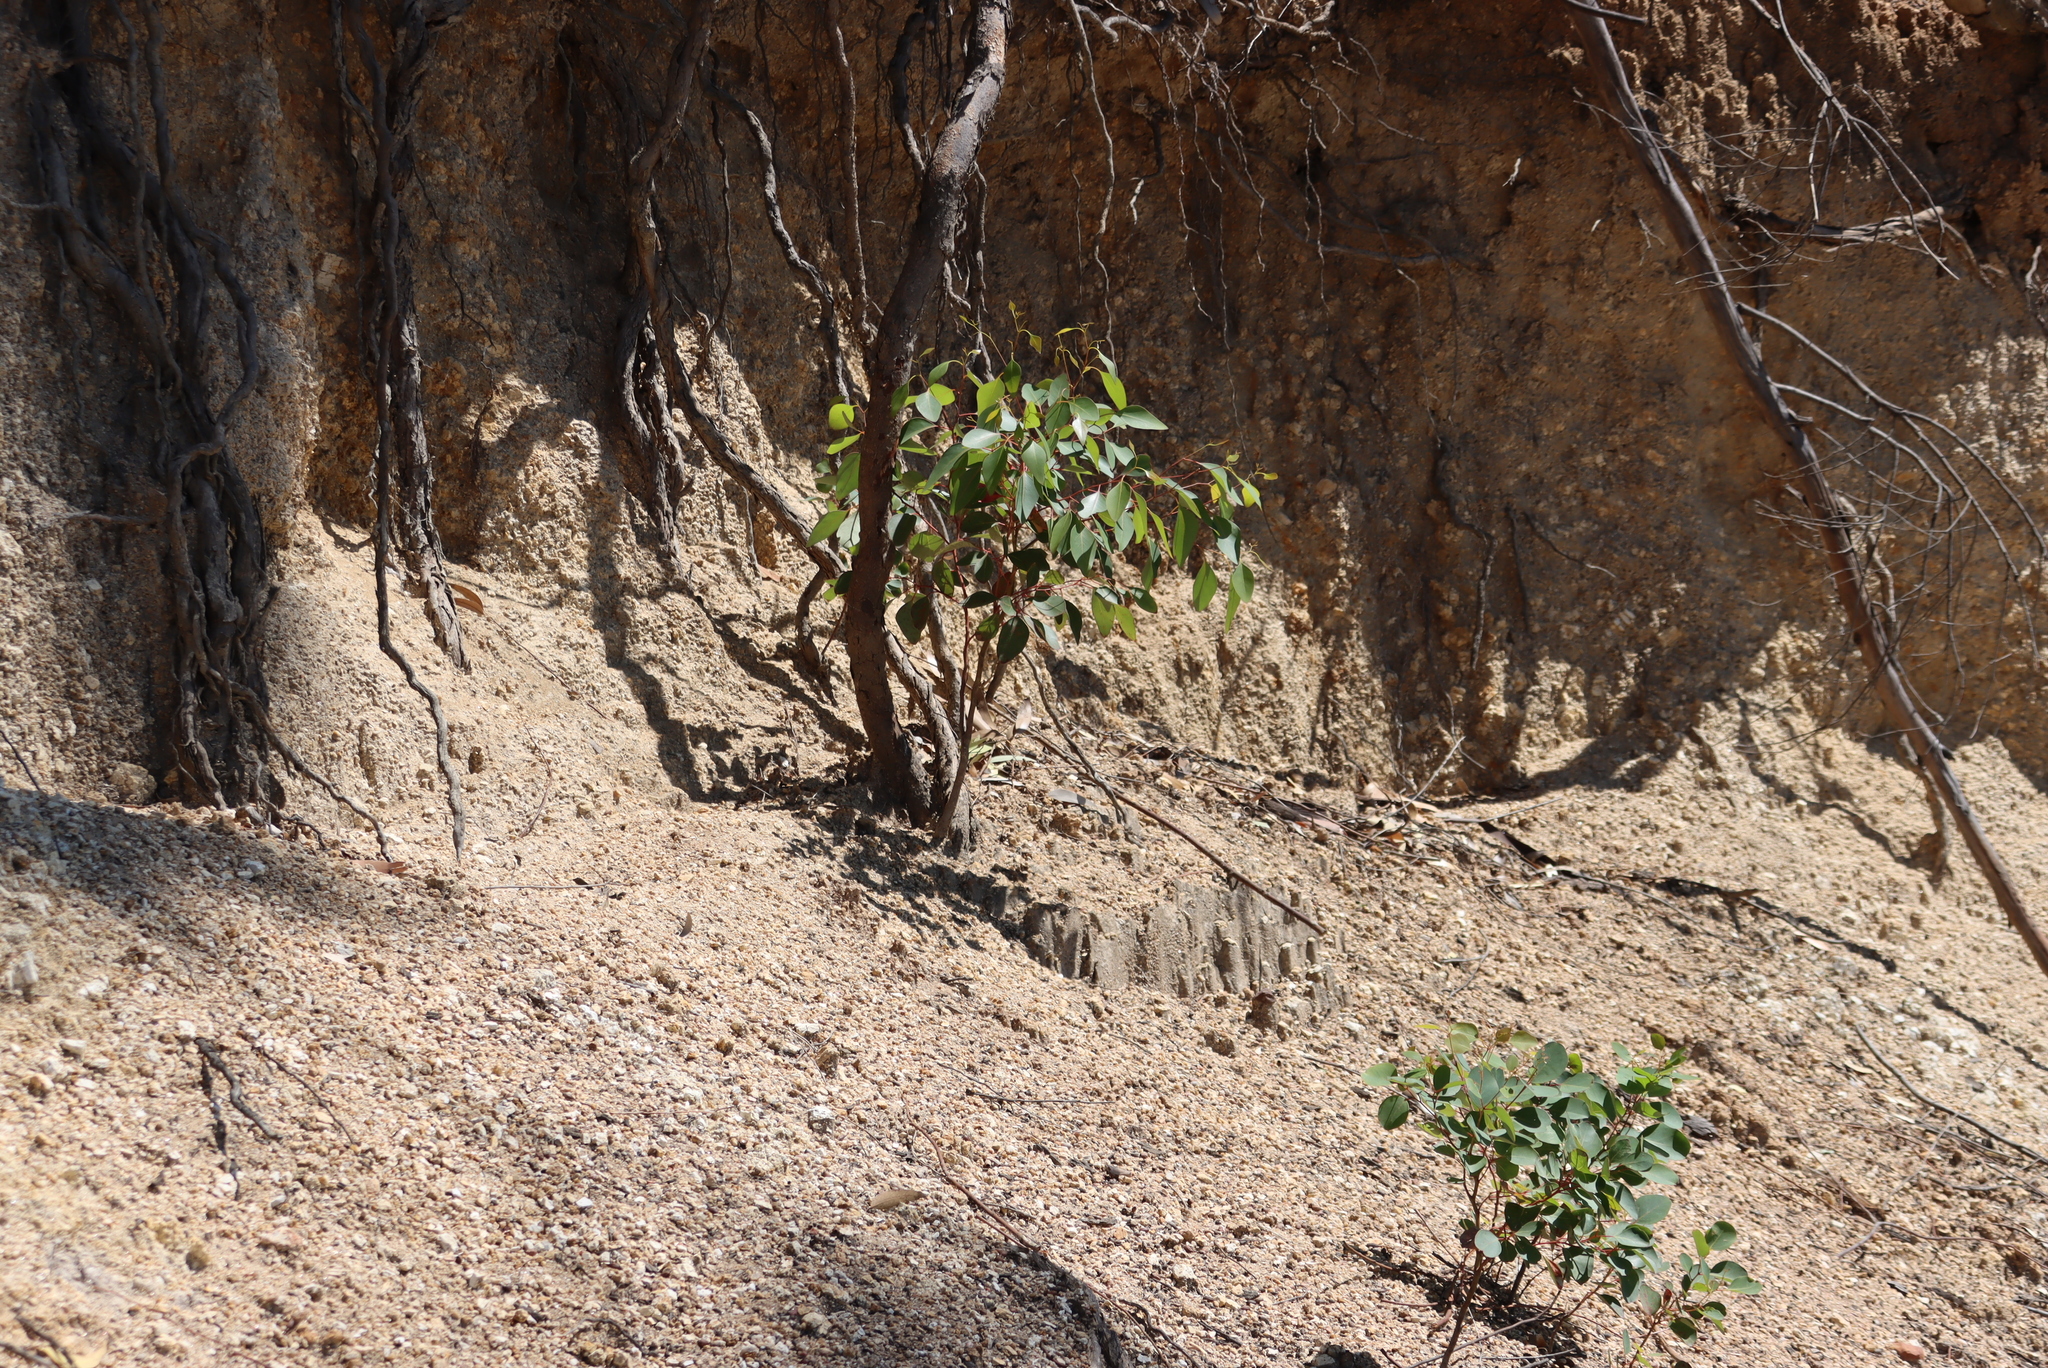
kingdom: Plantae
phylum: Tracheophyta
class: Magnoliopsida
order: Myrtales
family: Myrtaceae
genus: Eucalyptus
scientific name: Eucalyptus cladocalyx
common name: Sugargum
